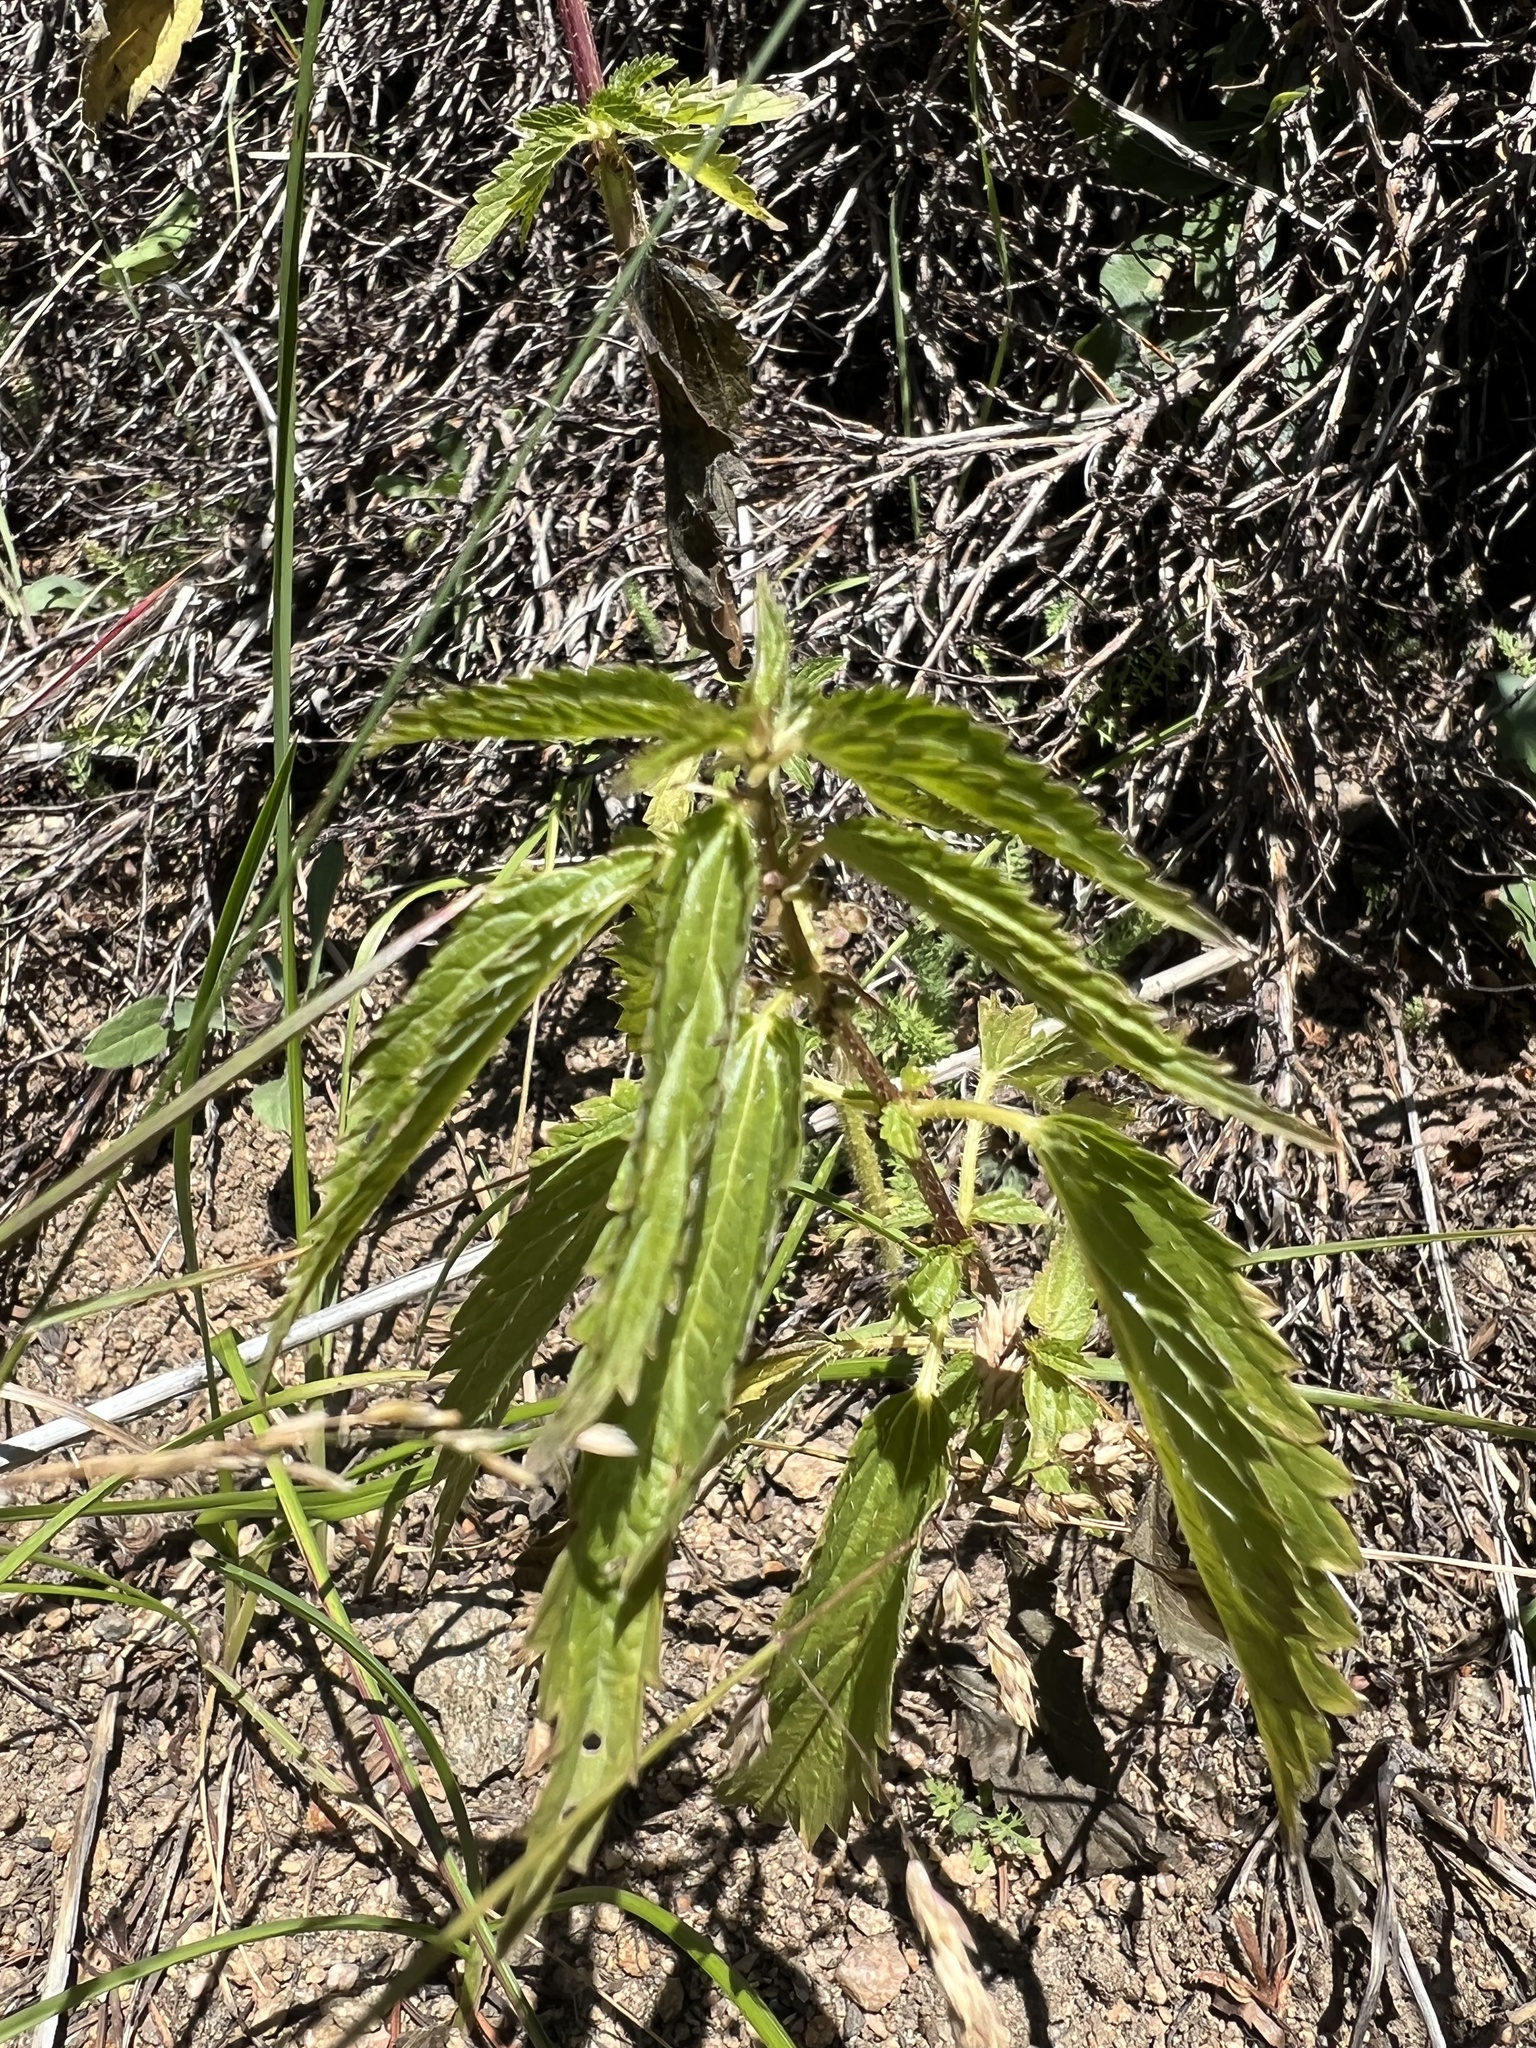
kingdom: Plantae
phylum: Tracheophyta
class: Magnoliopsida
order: Rosales
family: Urticaceae
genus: Urtica
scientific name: Urtica gracilis
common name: Slender stinging nettle
